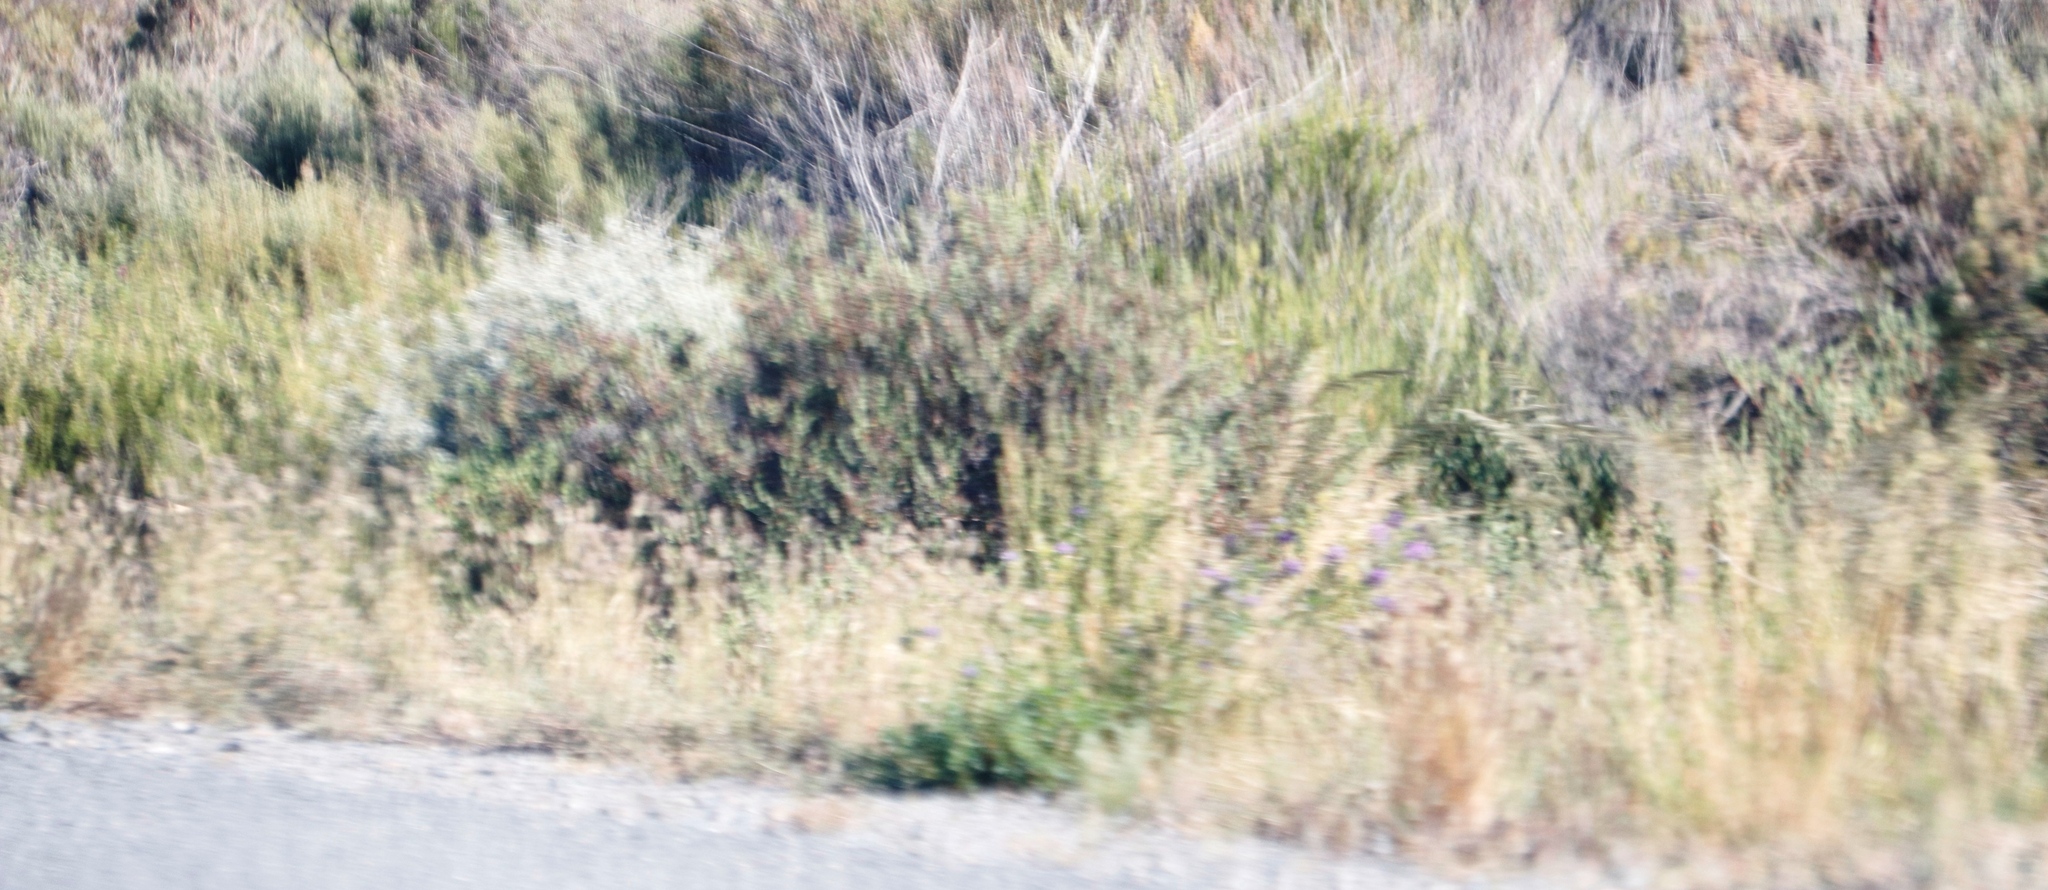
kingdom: Plantae
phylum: Tracheophyta
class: Magnoliopsida
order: Fabales
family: Fabaceae
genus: Medicago
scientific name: Medicago sativa
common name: Alfalfa
